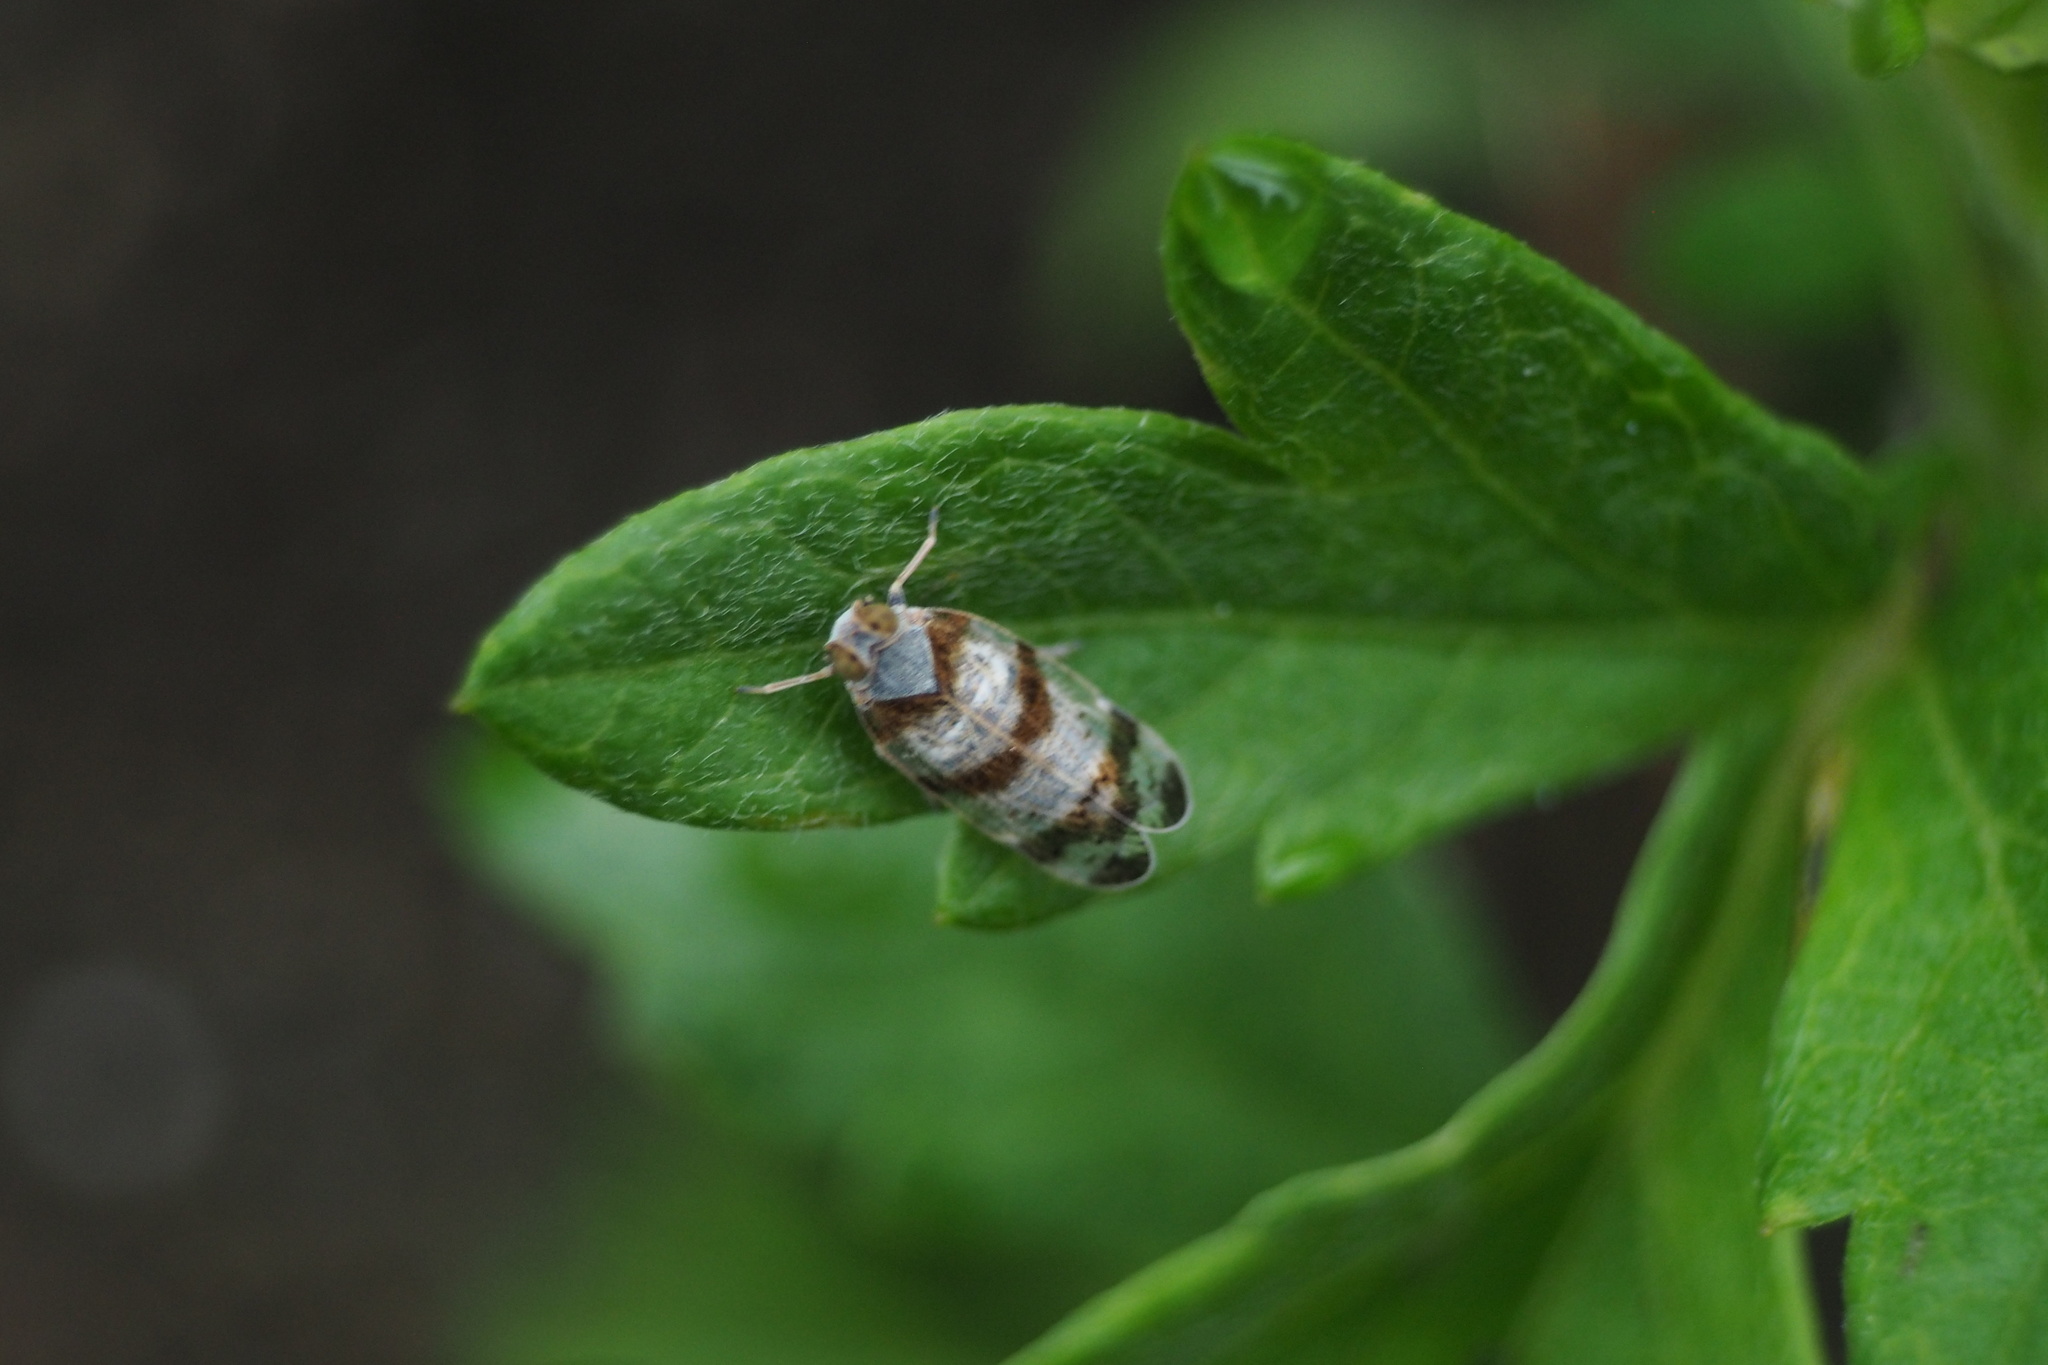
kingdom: Animalia
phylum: Arthropoda
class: Insecta
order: Hemiptera
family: Cixiidae
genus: Reptalus
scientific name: Reptalus quadricinctus
